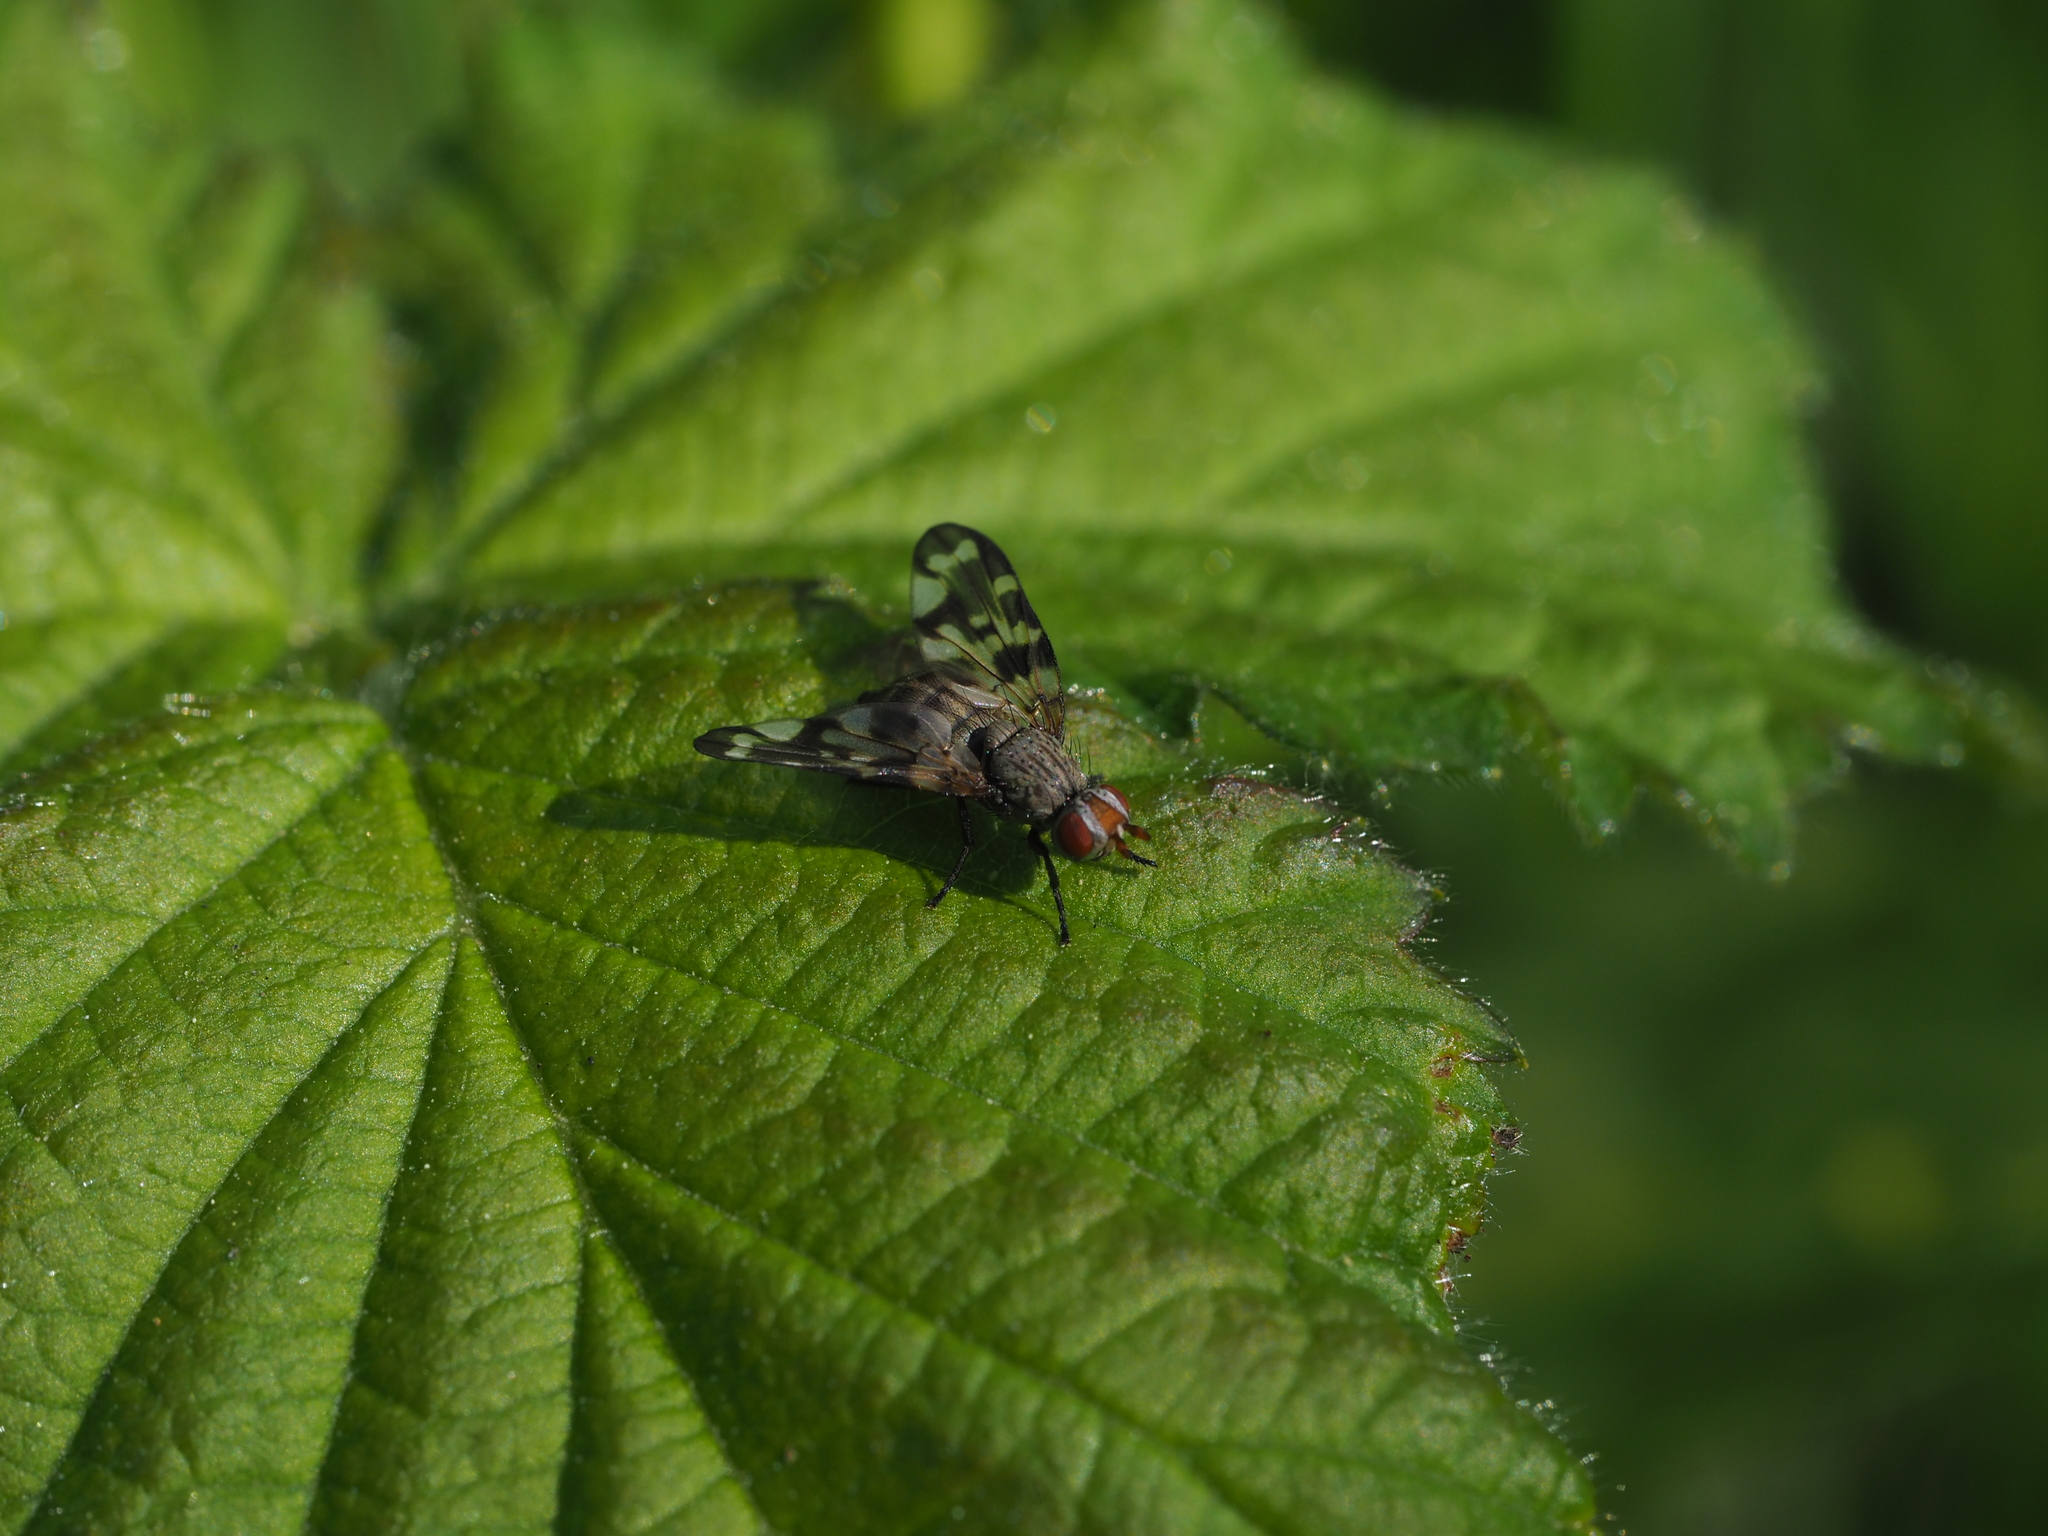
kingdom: Animalia
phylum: Arthropoda
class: Insecta
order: Diptera
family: Ulidiidae
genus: Otites
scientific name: Otites centralis
